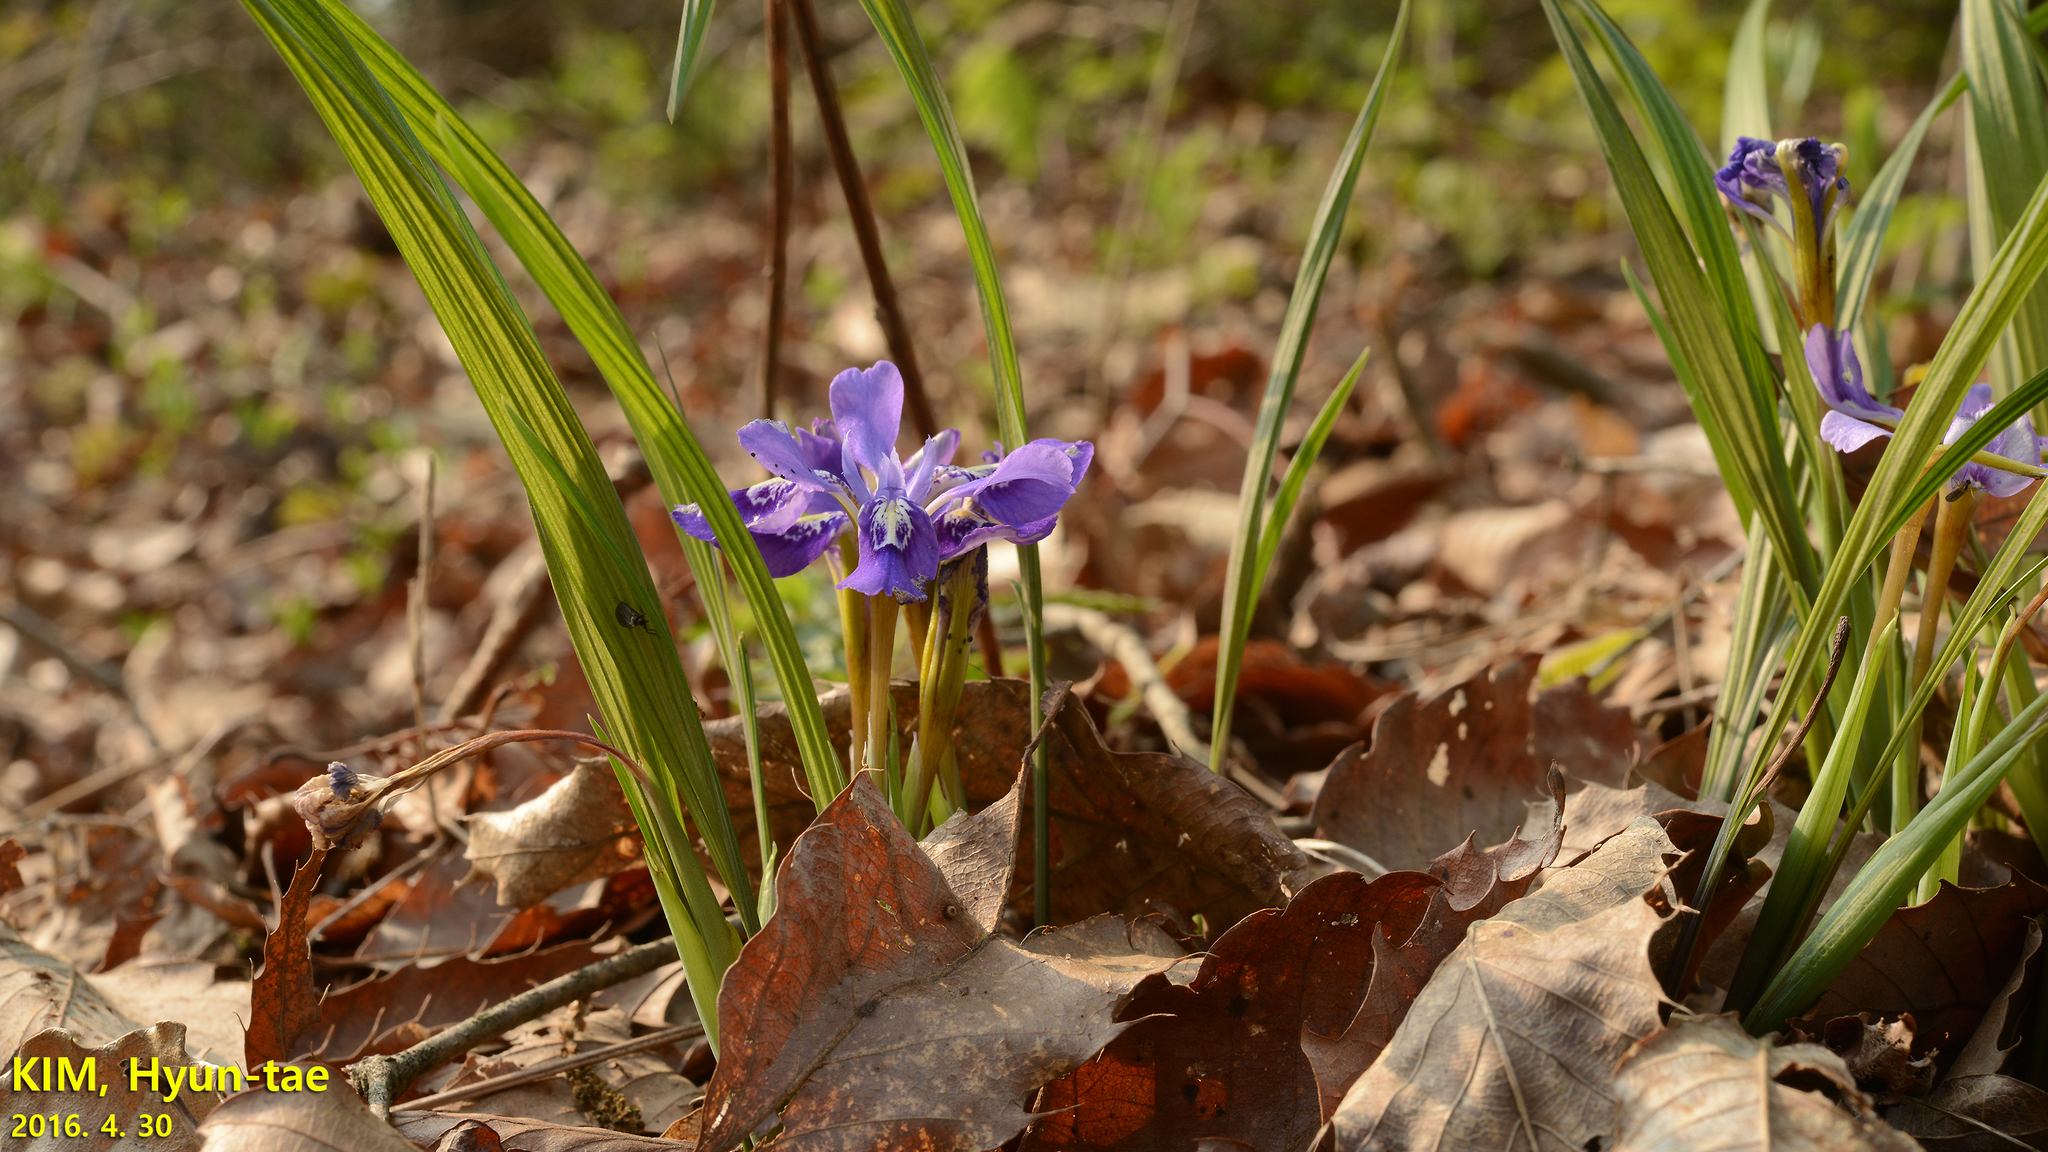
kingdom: Plantae
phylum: Tracheophyta
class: Liliopsida
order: Asparagales
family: Iridaceae
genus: Iris
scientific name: Iris rossii
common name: Long-tail iris
